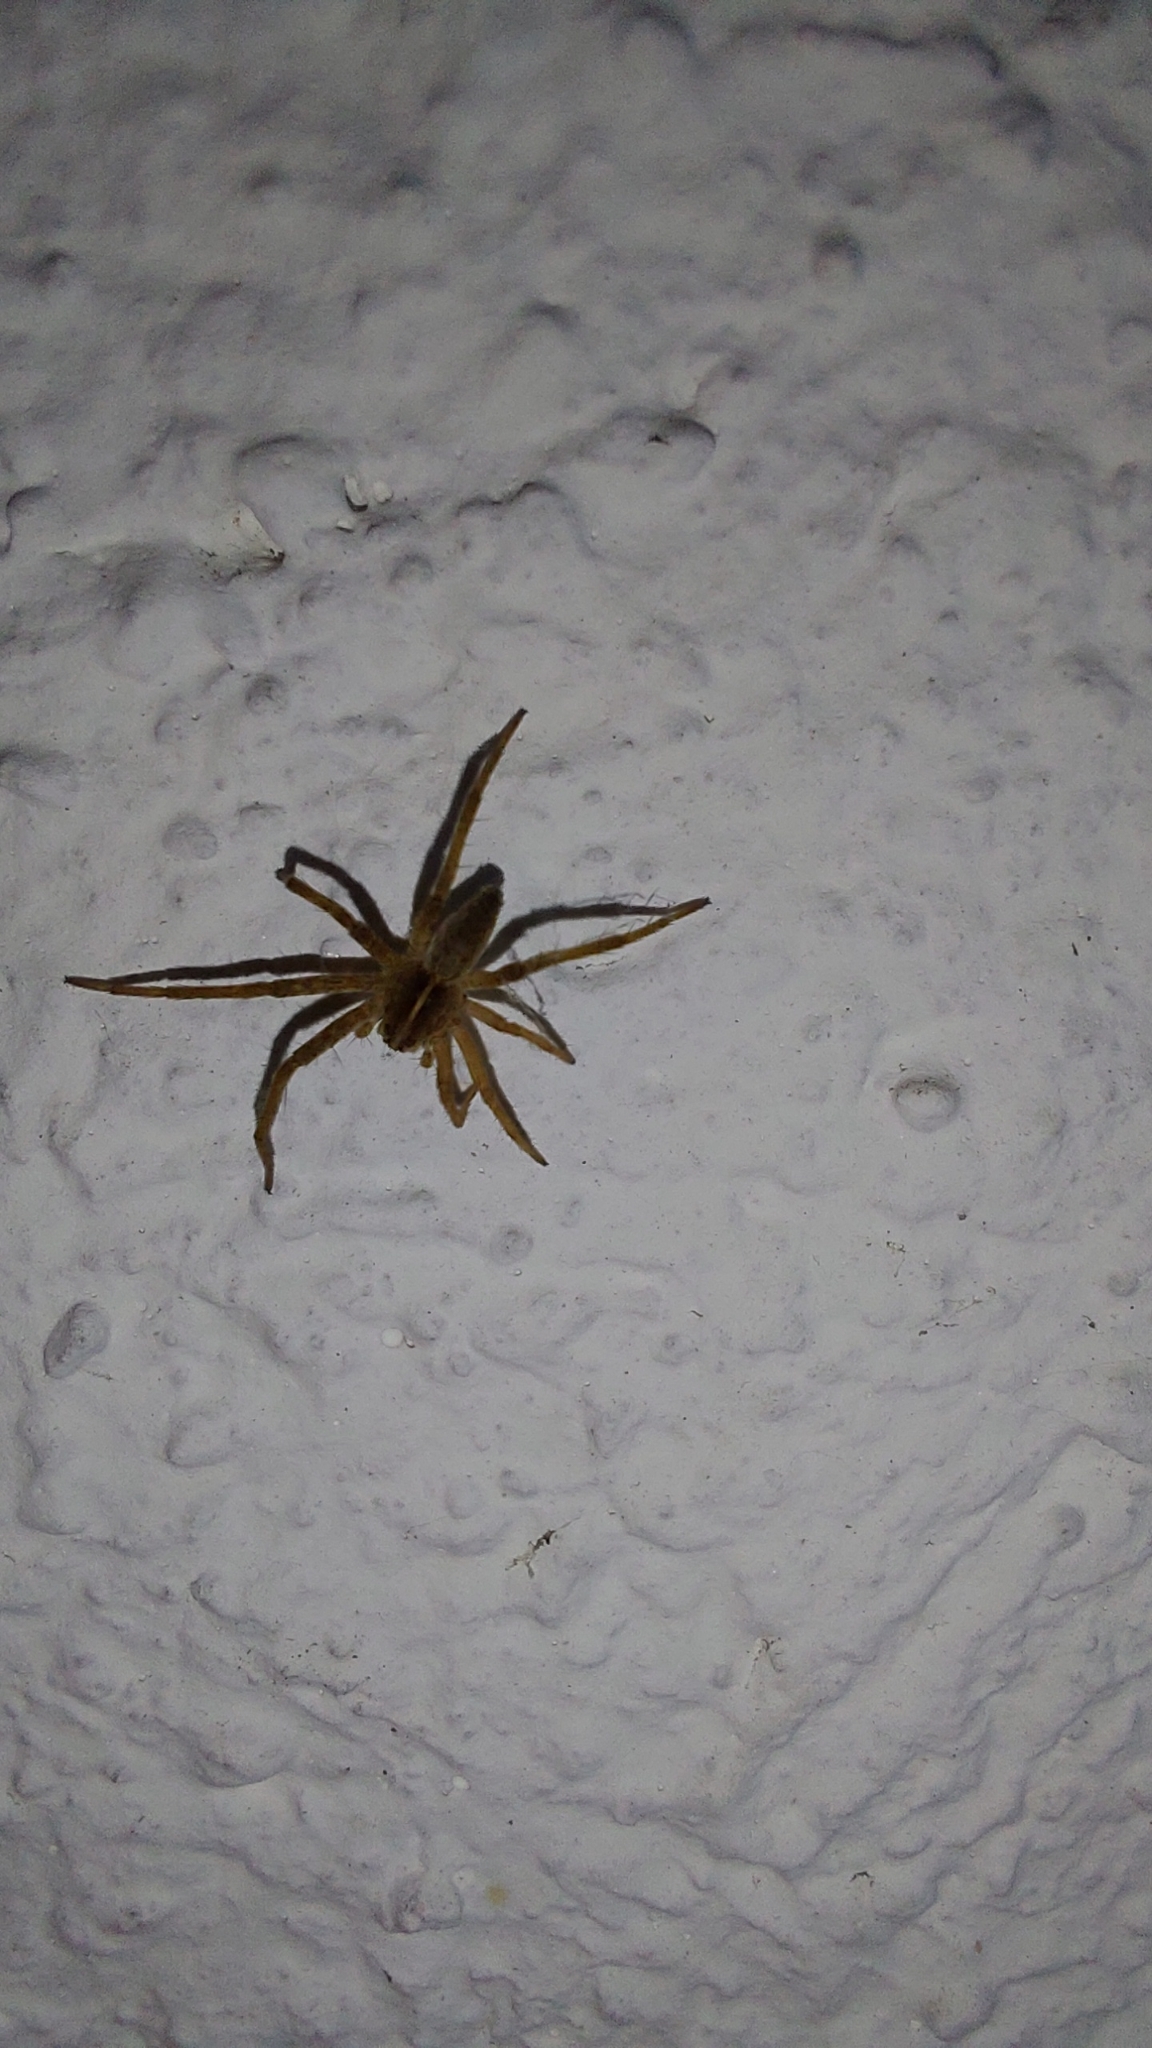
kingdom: Animalia
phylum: Arthropoda
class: Arachnida
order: Araneae
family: Pisauridae
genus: Pisaura
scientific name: Pisaura mirabilis
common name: Tent spider
